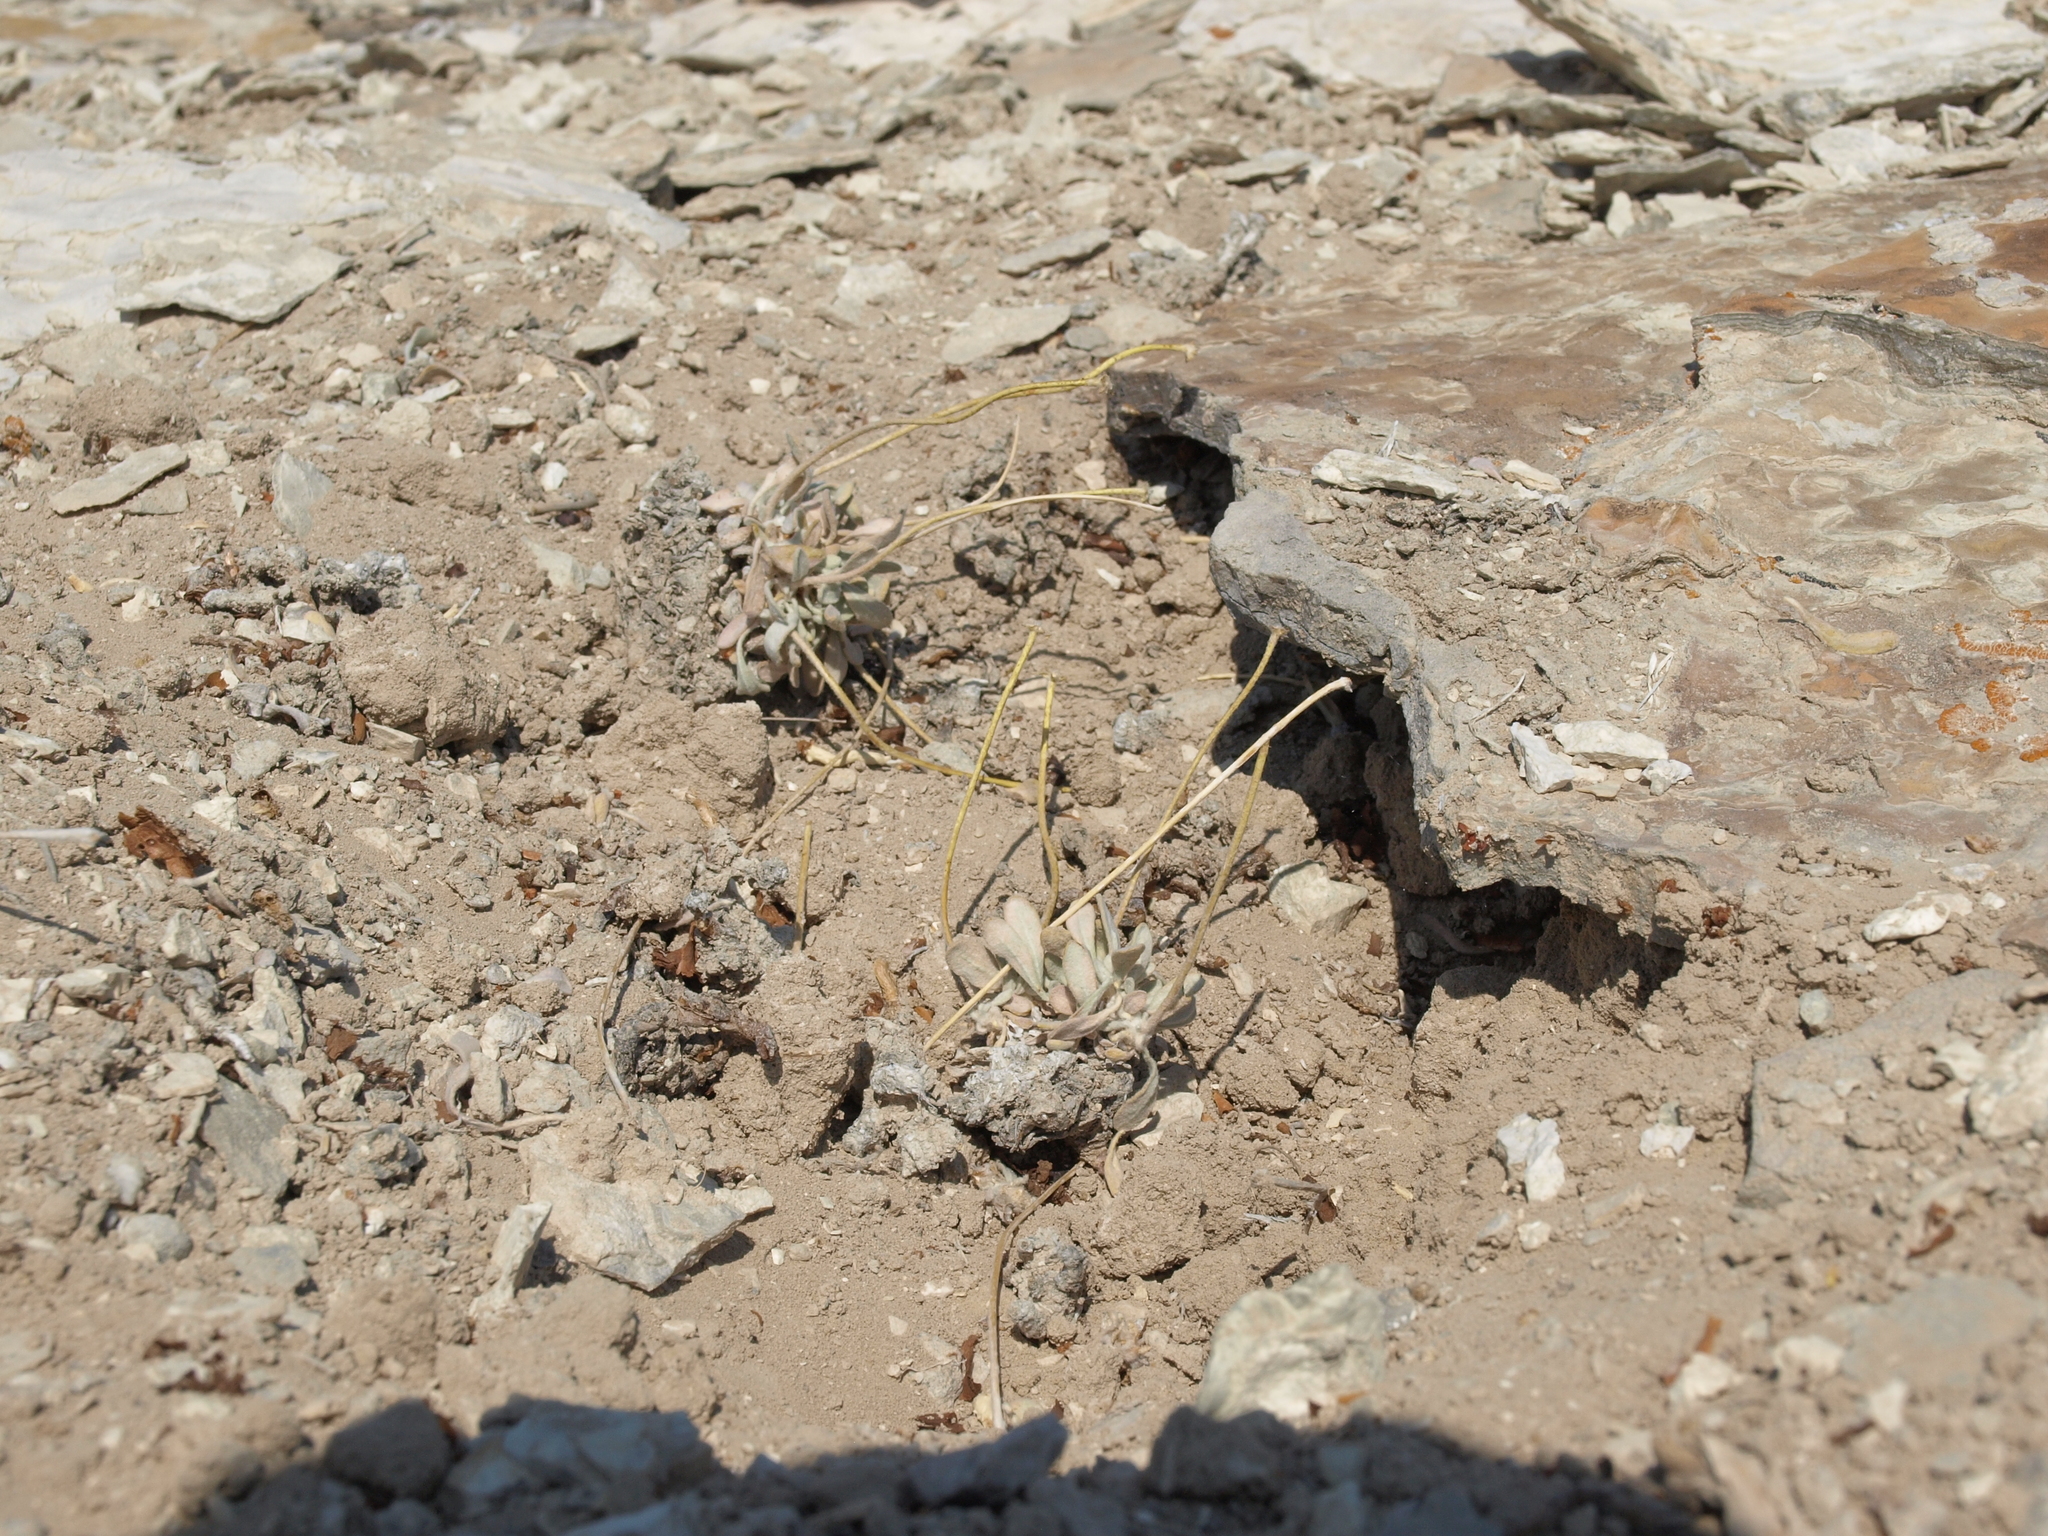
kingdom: Plantae
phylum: Tracheophyta
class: Magnoliopsida
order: Caryophyllales
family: Polygonaceae
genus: Eriogonum
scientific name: Eriogonum tiehmii
